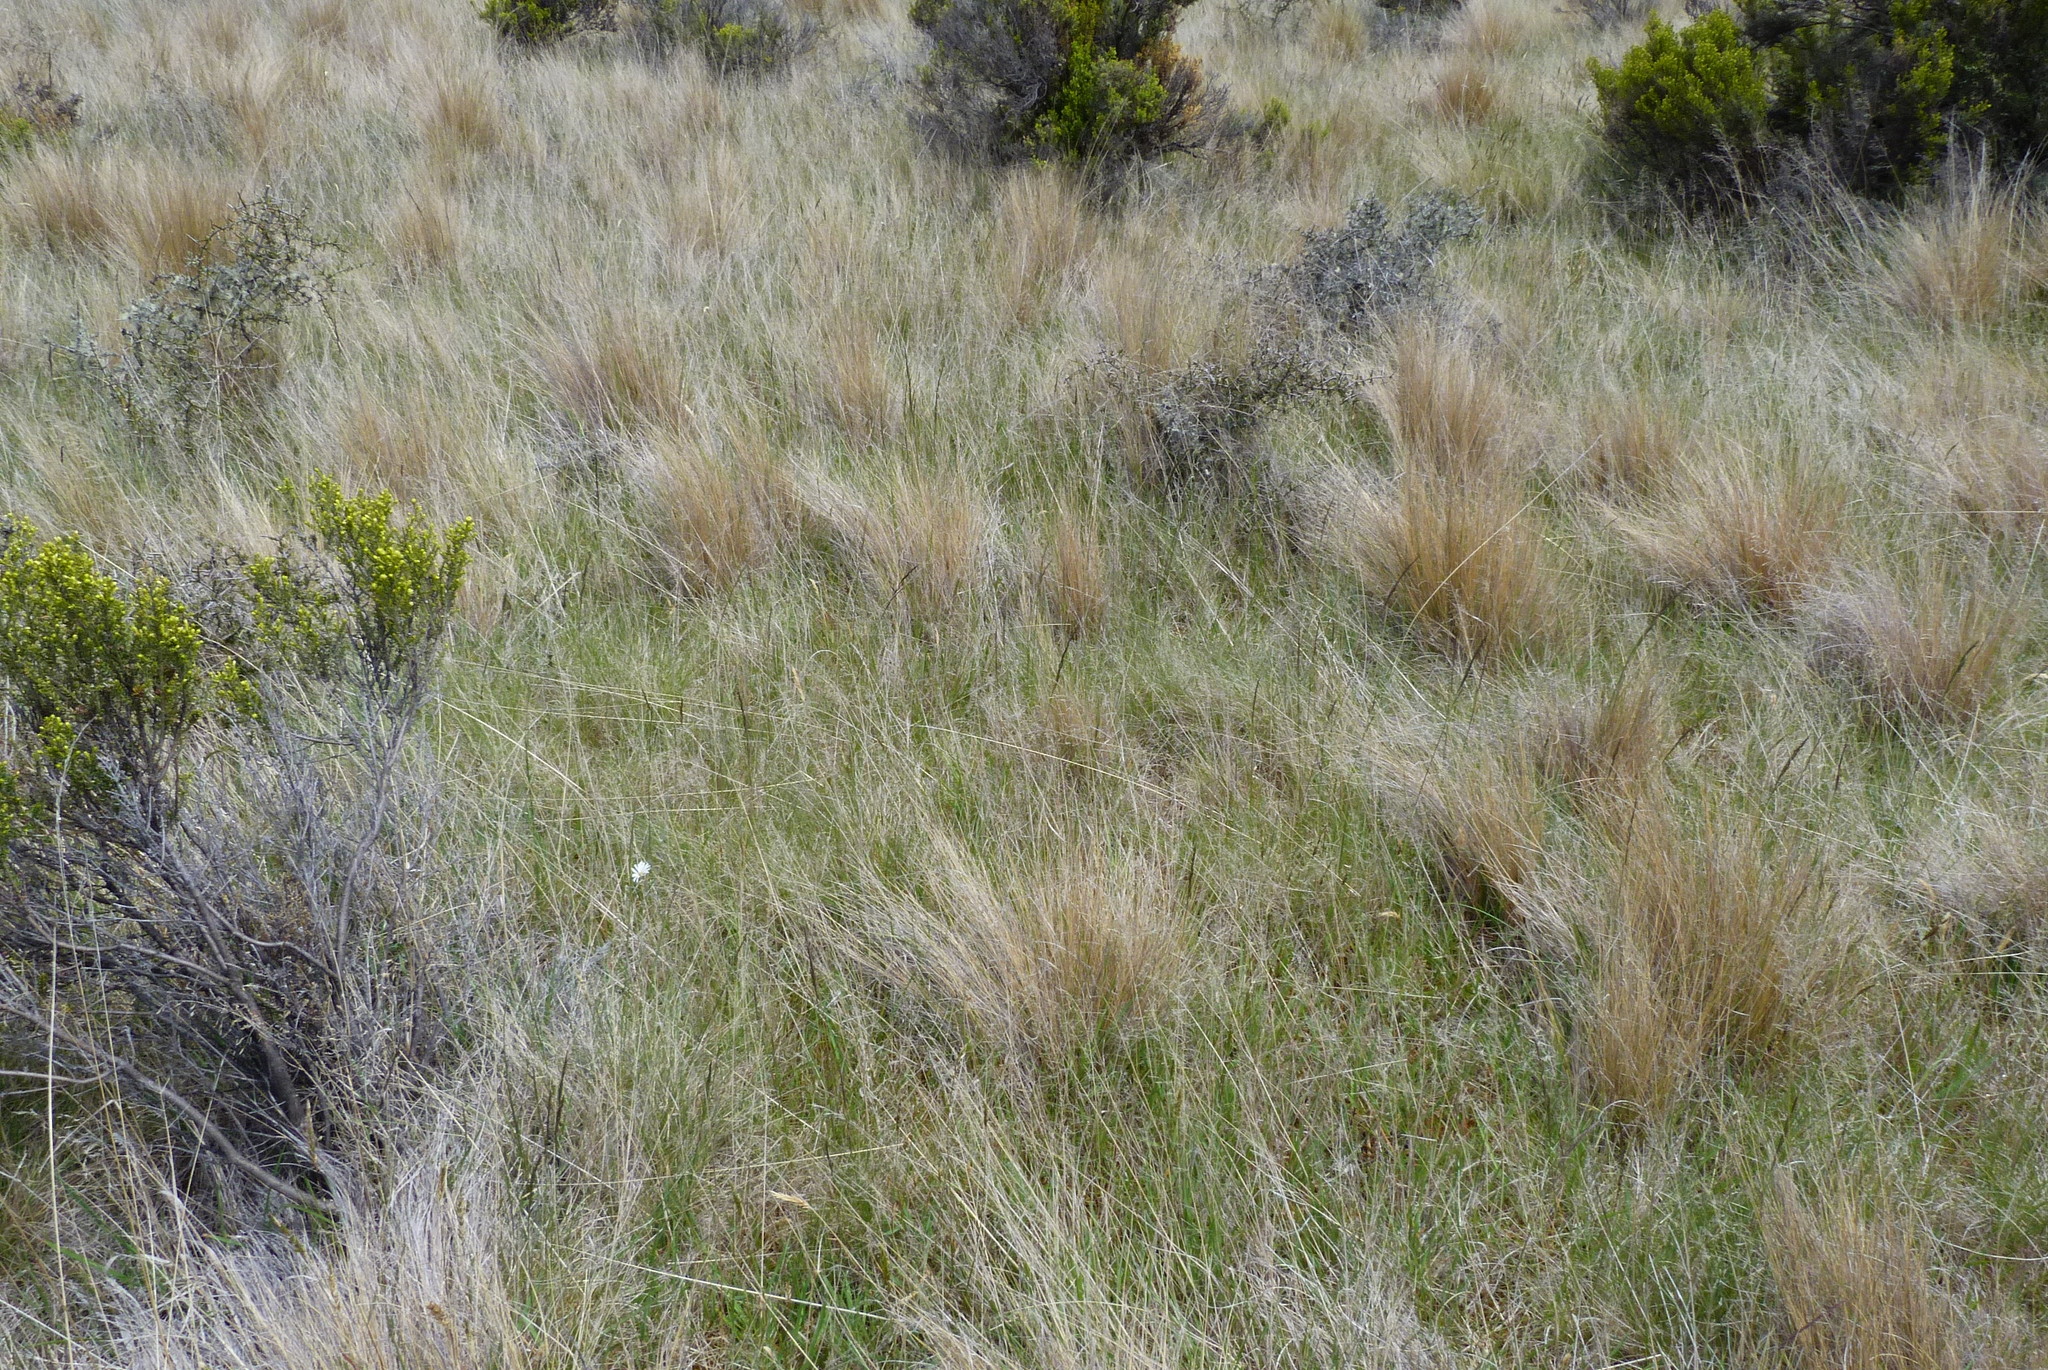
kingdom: Plantae
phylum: Tracheophyta
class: Liliopsida
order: Poales
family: Poaceae
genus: Festuca
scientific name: Festuca rubra
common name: Red fescue
